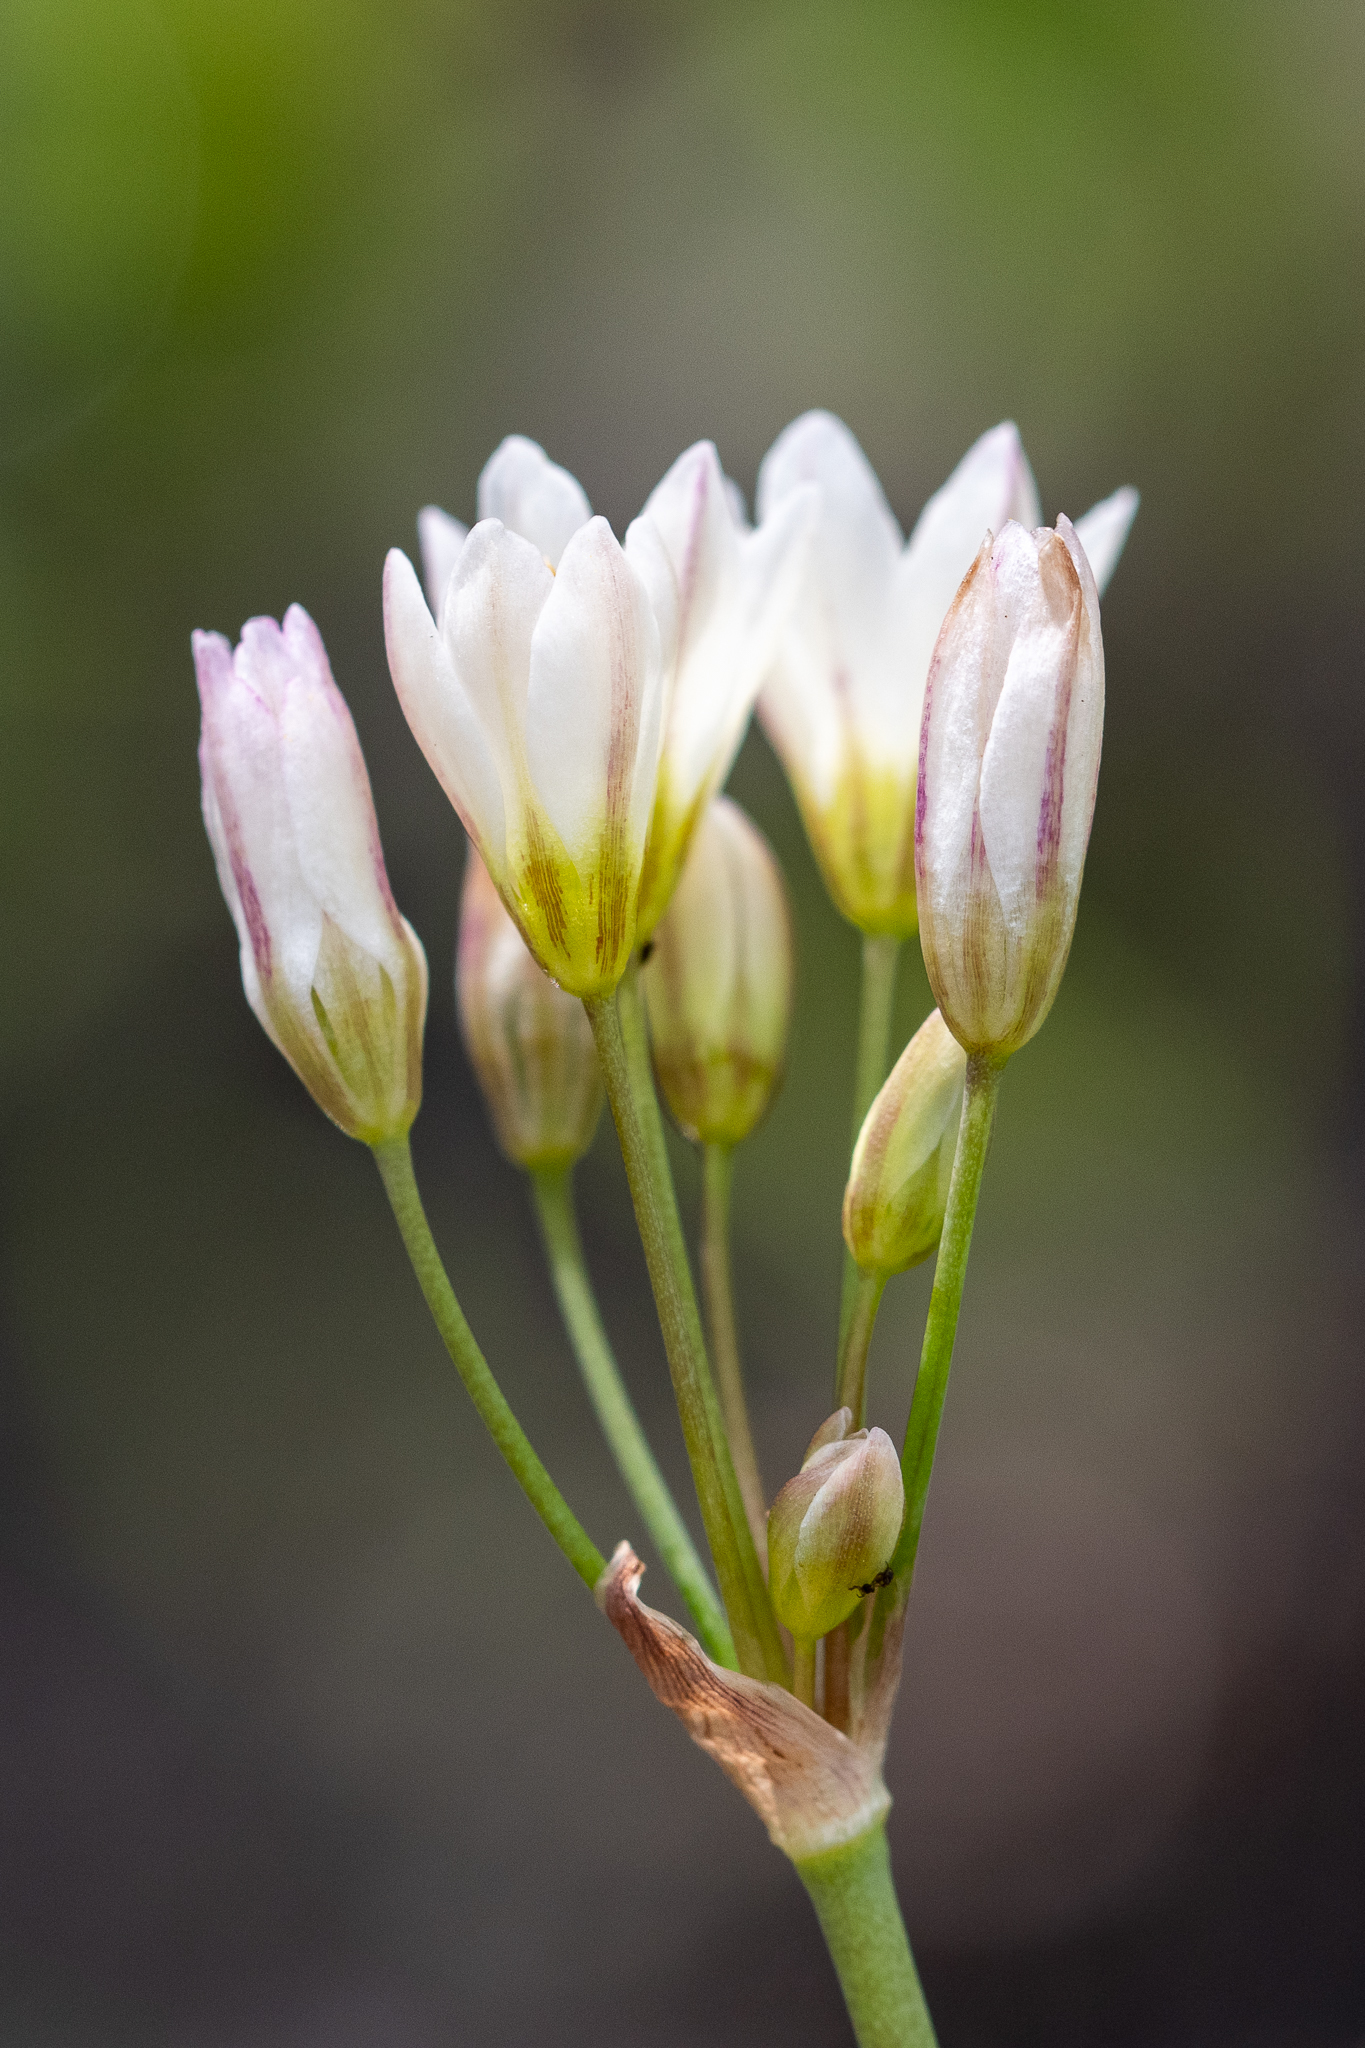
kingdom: Plantae
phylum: Tracheophyta
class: Liliopsida
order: Asparagales
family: Amaryllidaceae
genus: Nothoscordum
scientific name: Nothoscordum borbonicum
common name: Honeybells
